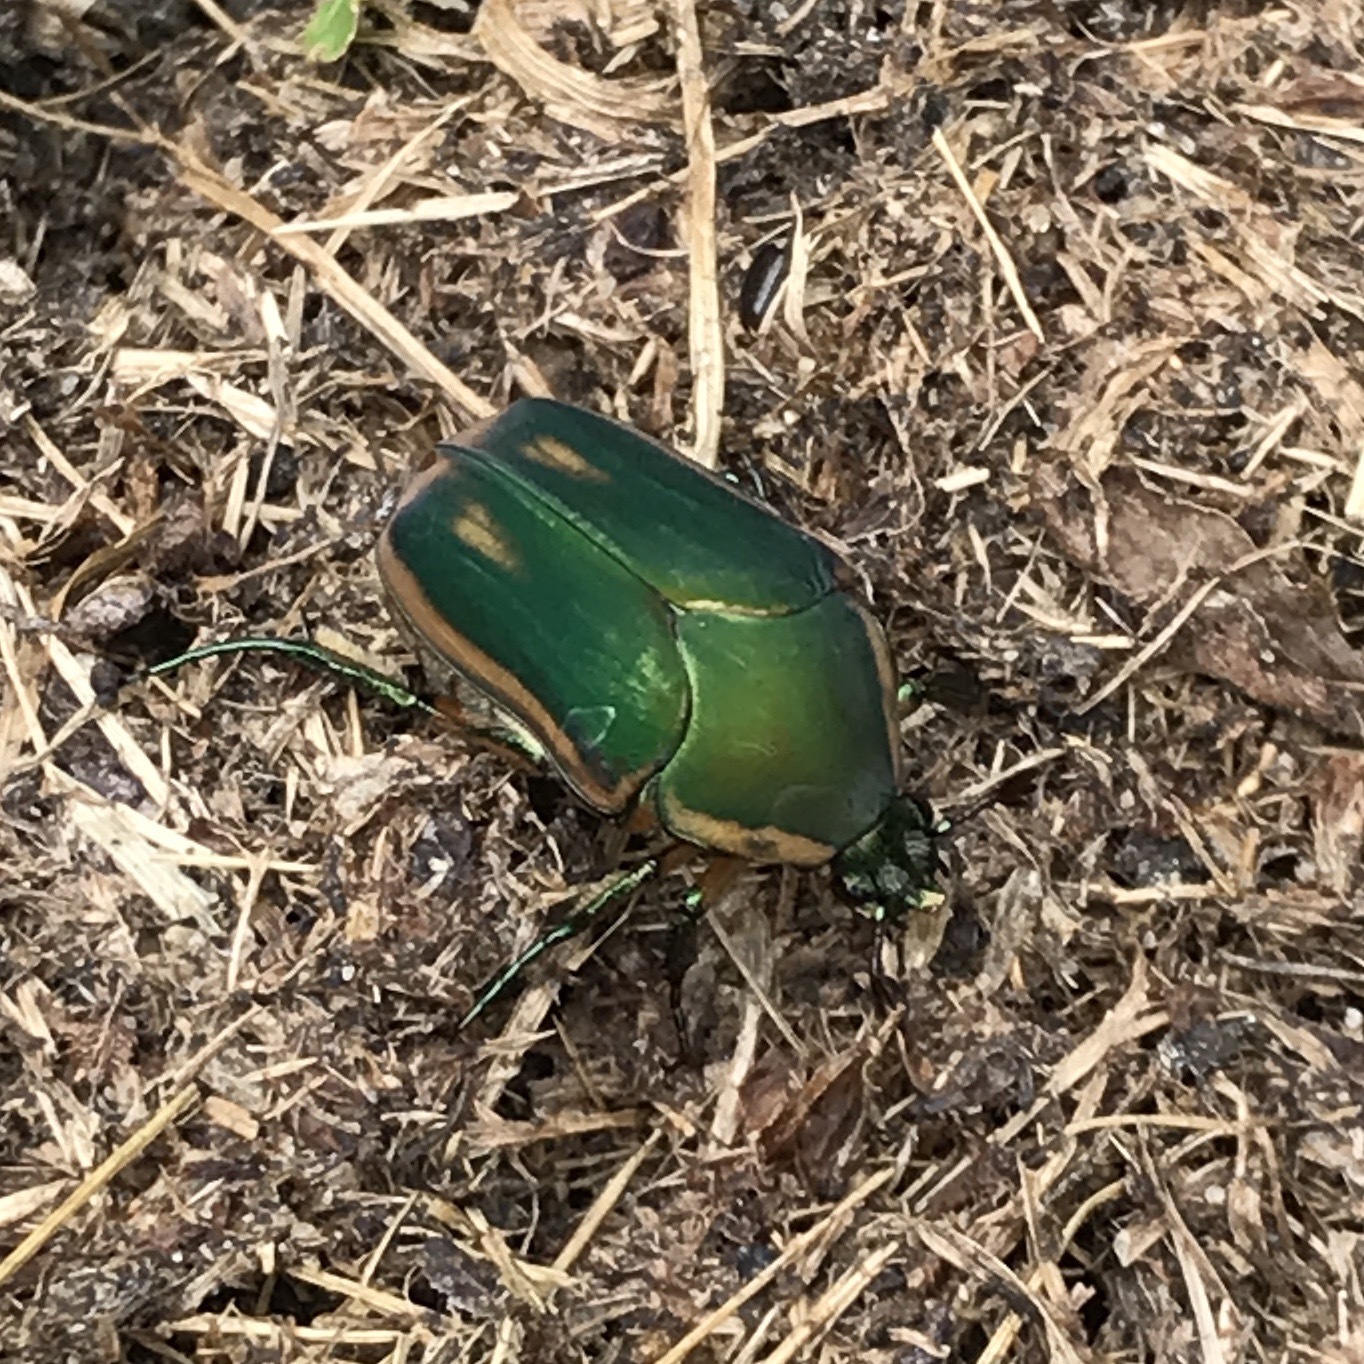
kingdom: Animalia
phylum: Arthropoda
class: Insecta
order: Coleoptera
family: Scarabaeidae
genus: Cotinis
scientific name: Cotinis nitida
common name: Common green june beetle
